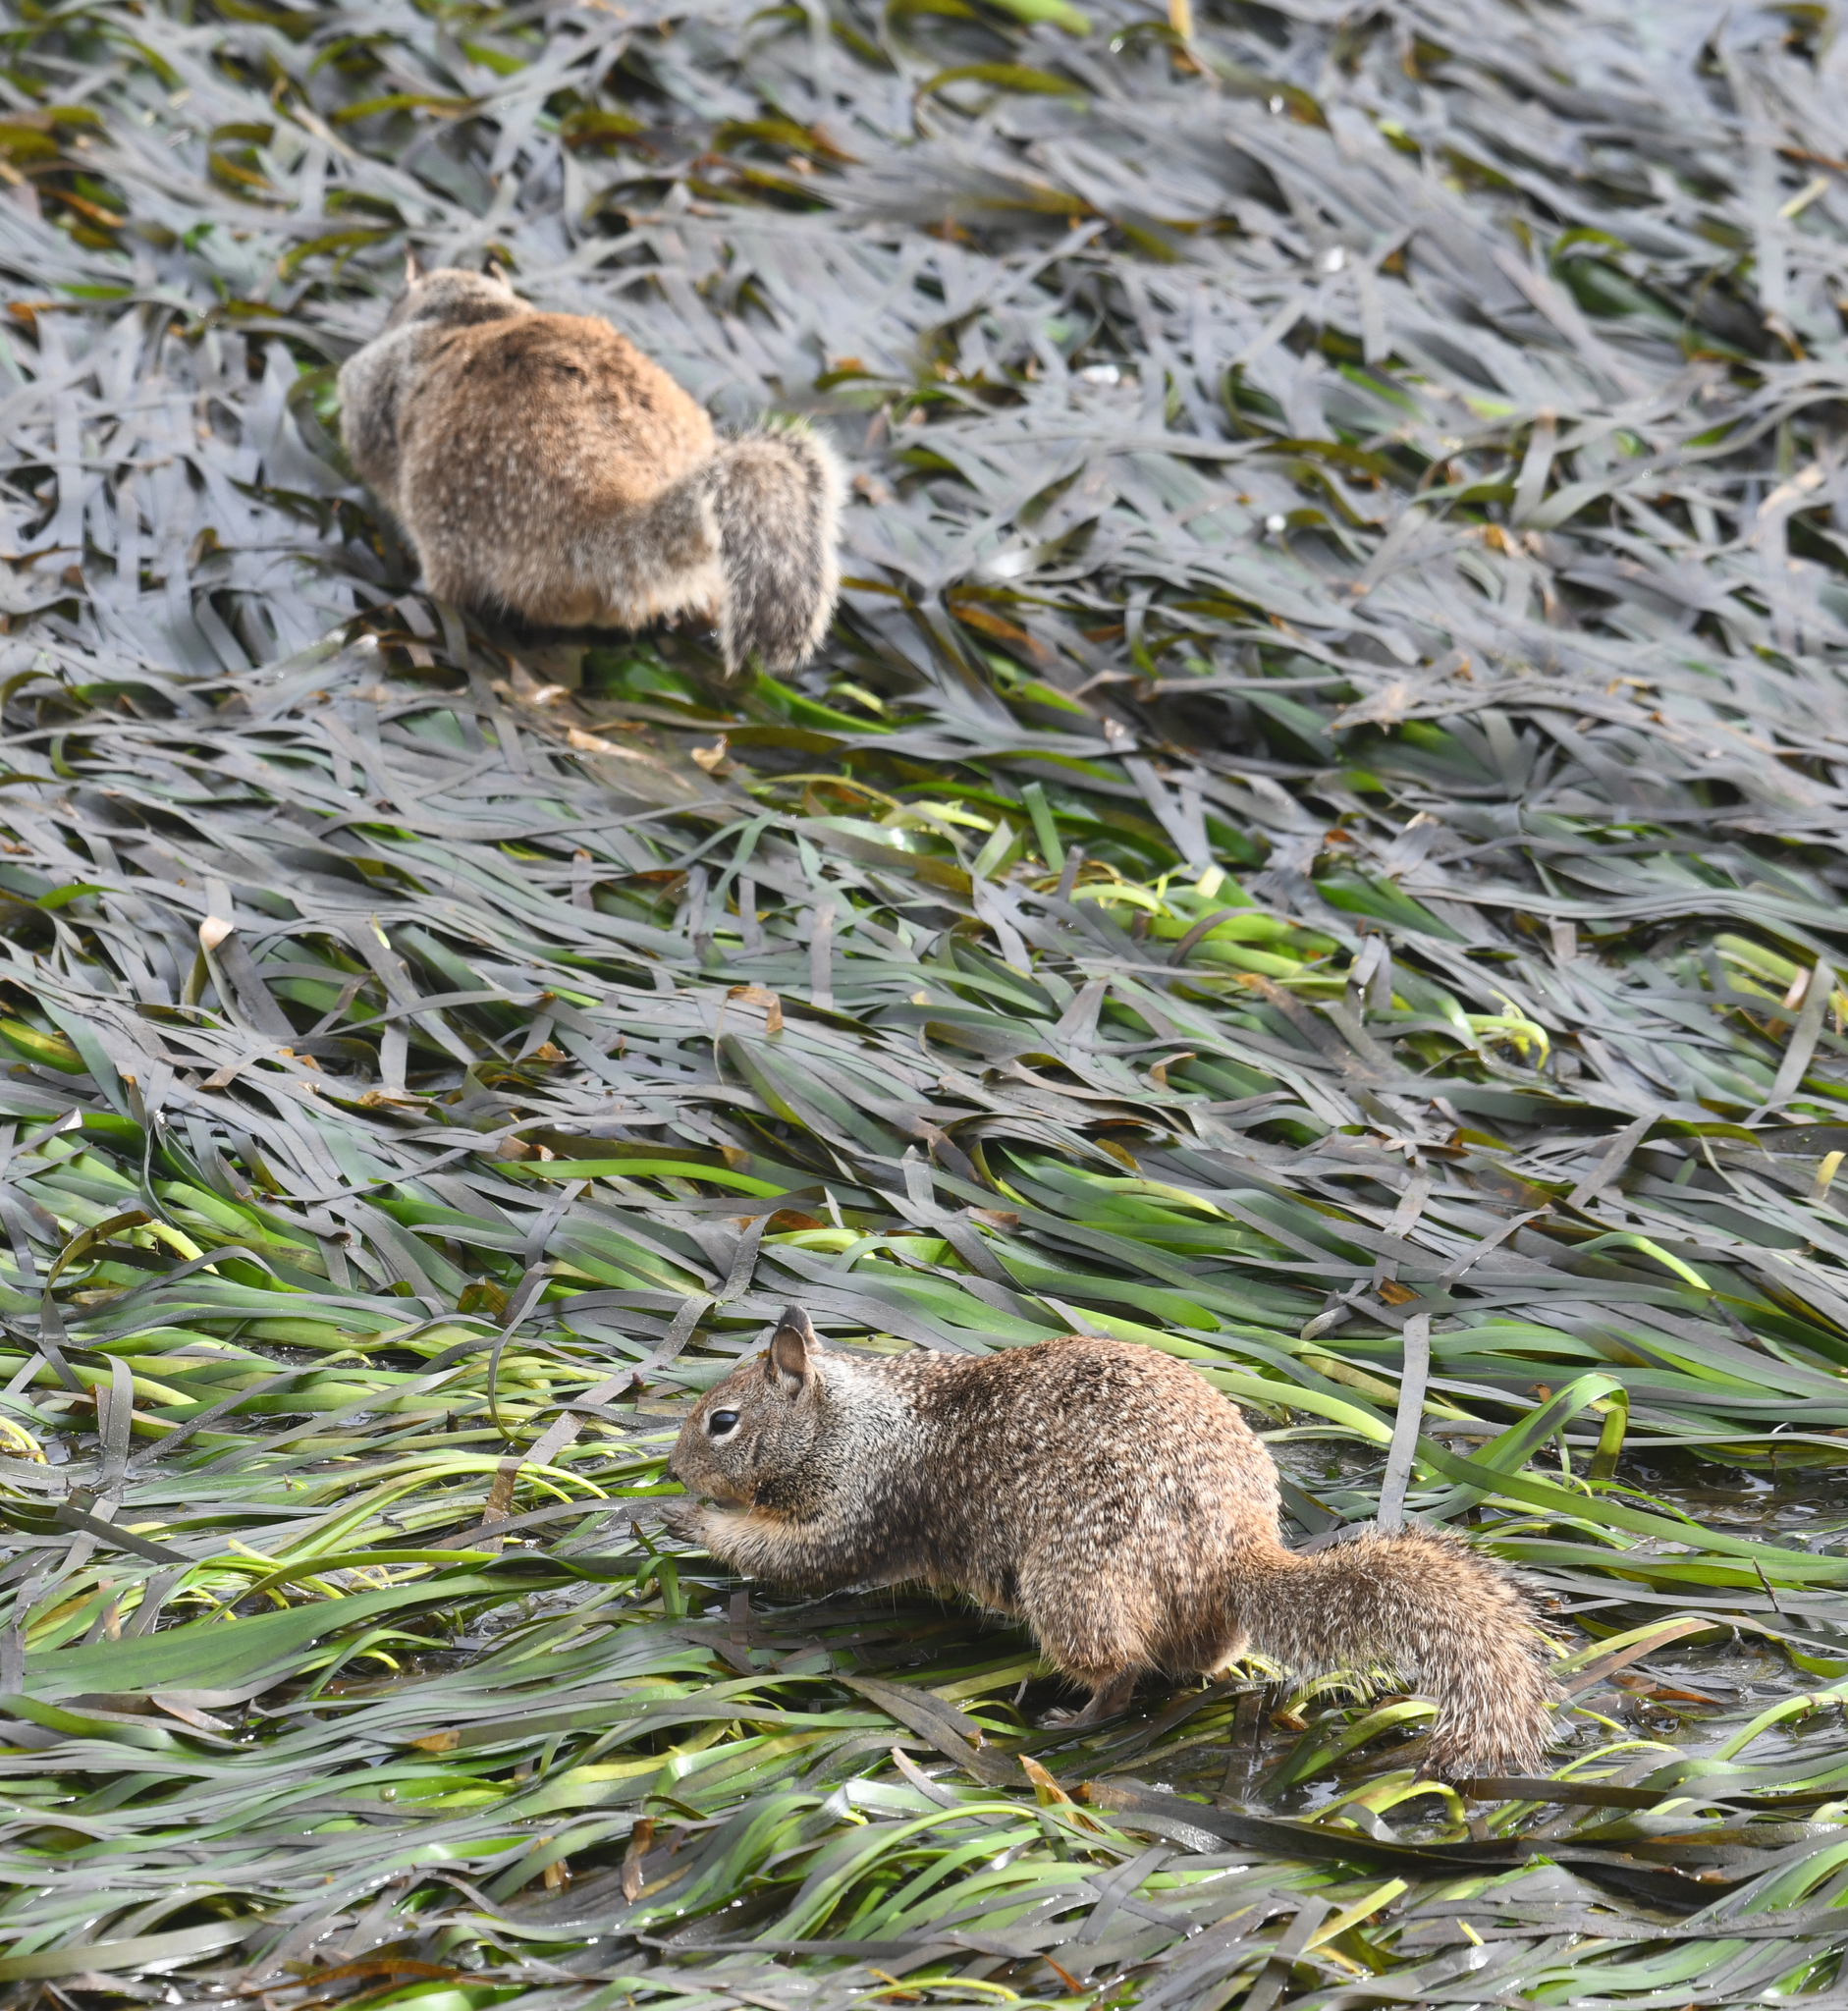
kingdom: Animalia
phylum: Chordata
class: Mammalia
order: Rodentia
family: Sciuridae
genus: Otospermophilus
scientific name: Otospermophilus beecheyi
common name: California ground squirrel
